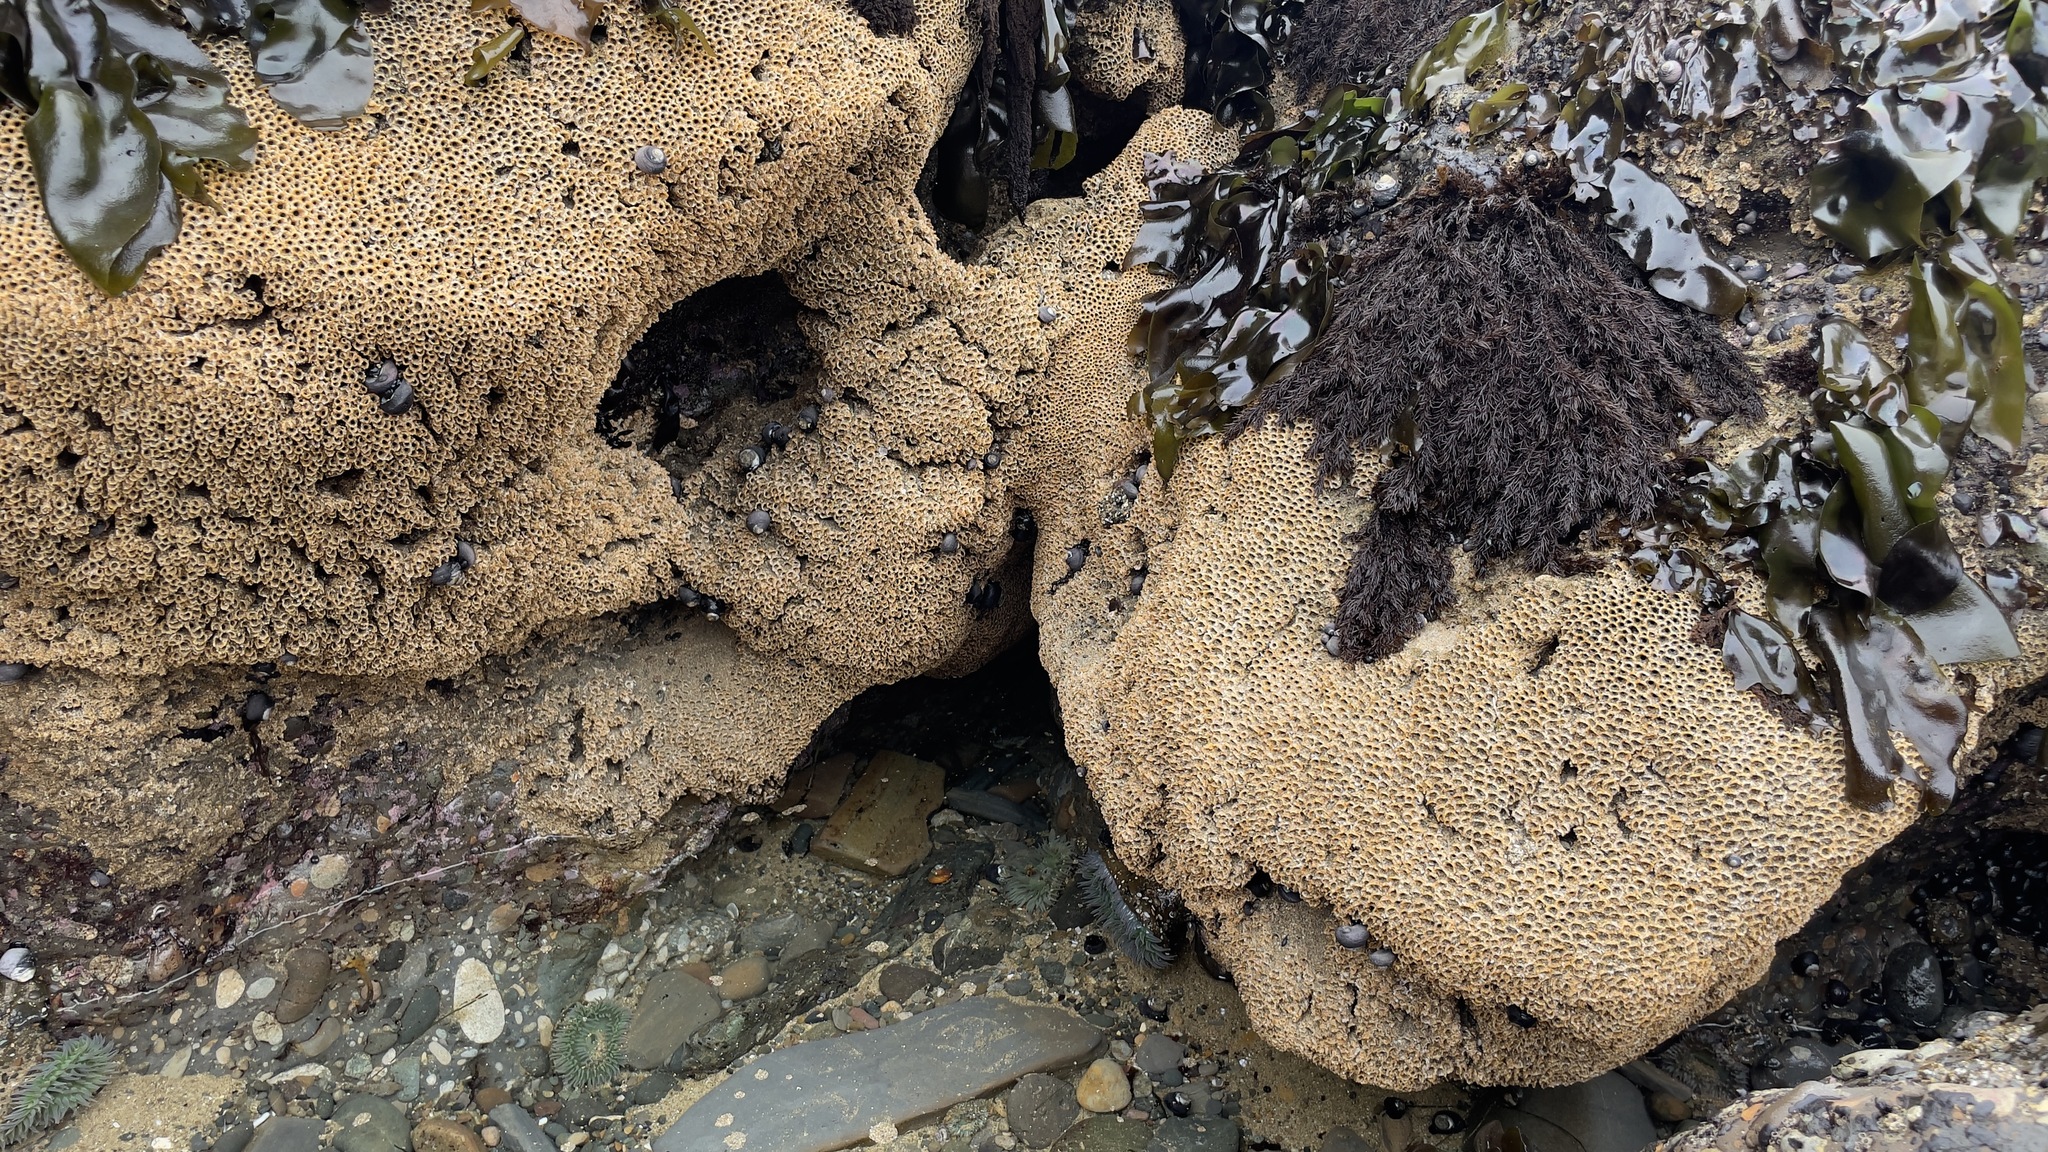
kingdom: Animalia
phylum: Annelida
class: Polychaeta
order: Sabellida
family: Sabellariidae
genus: Phragmatopoma
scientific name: Phragmatopoma californica
